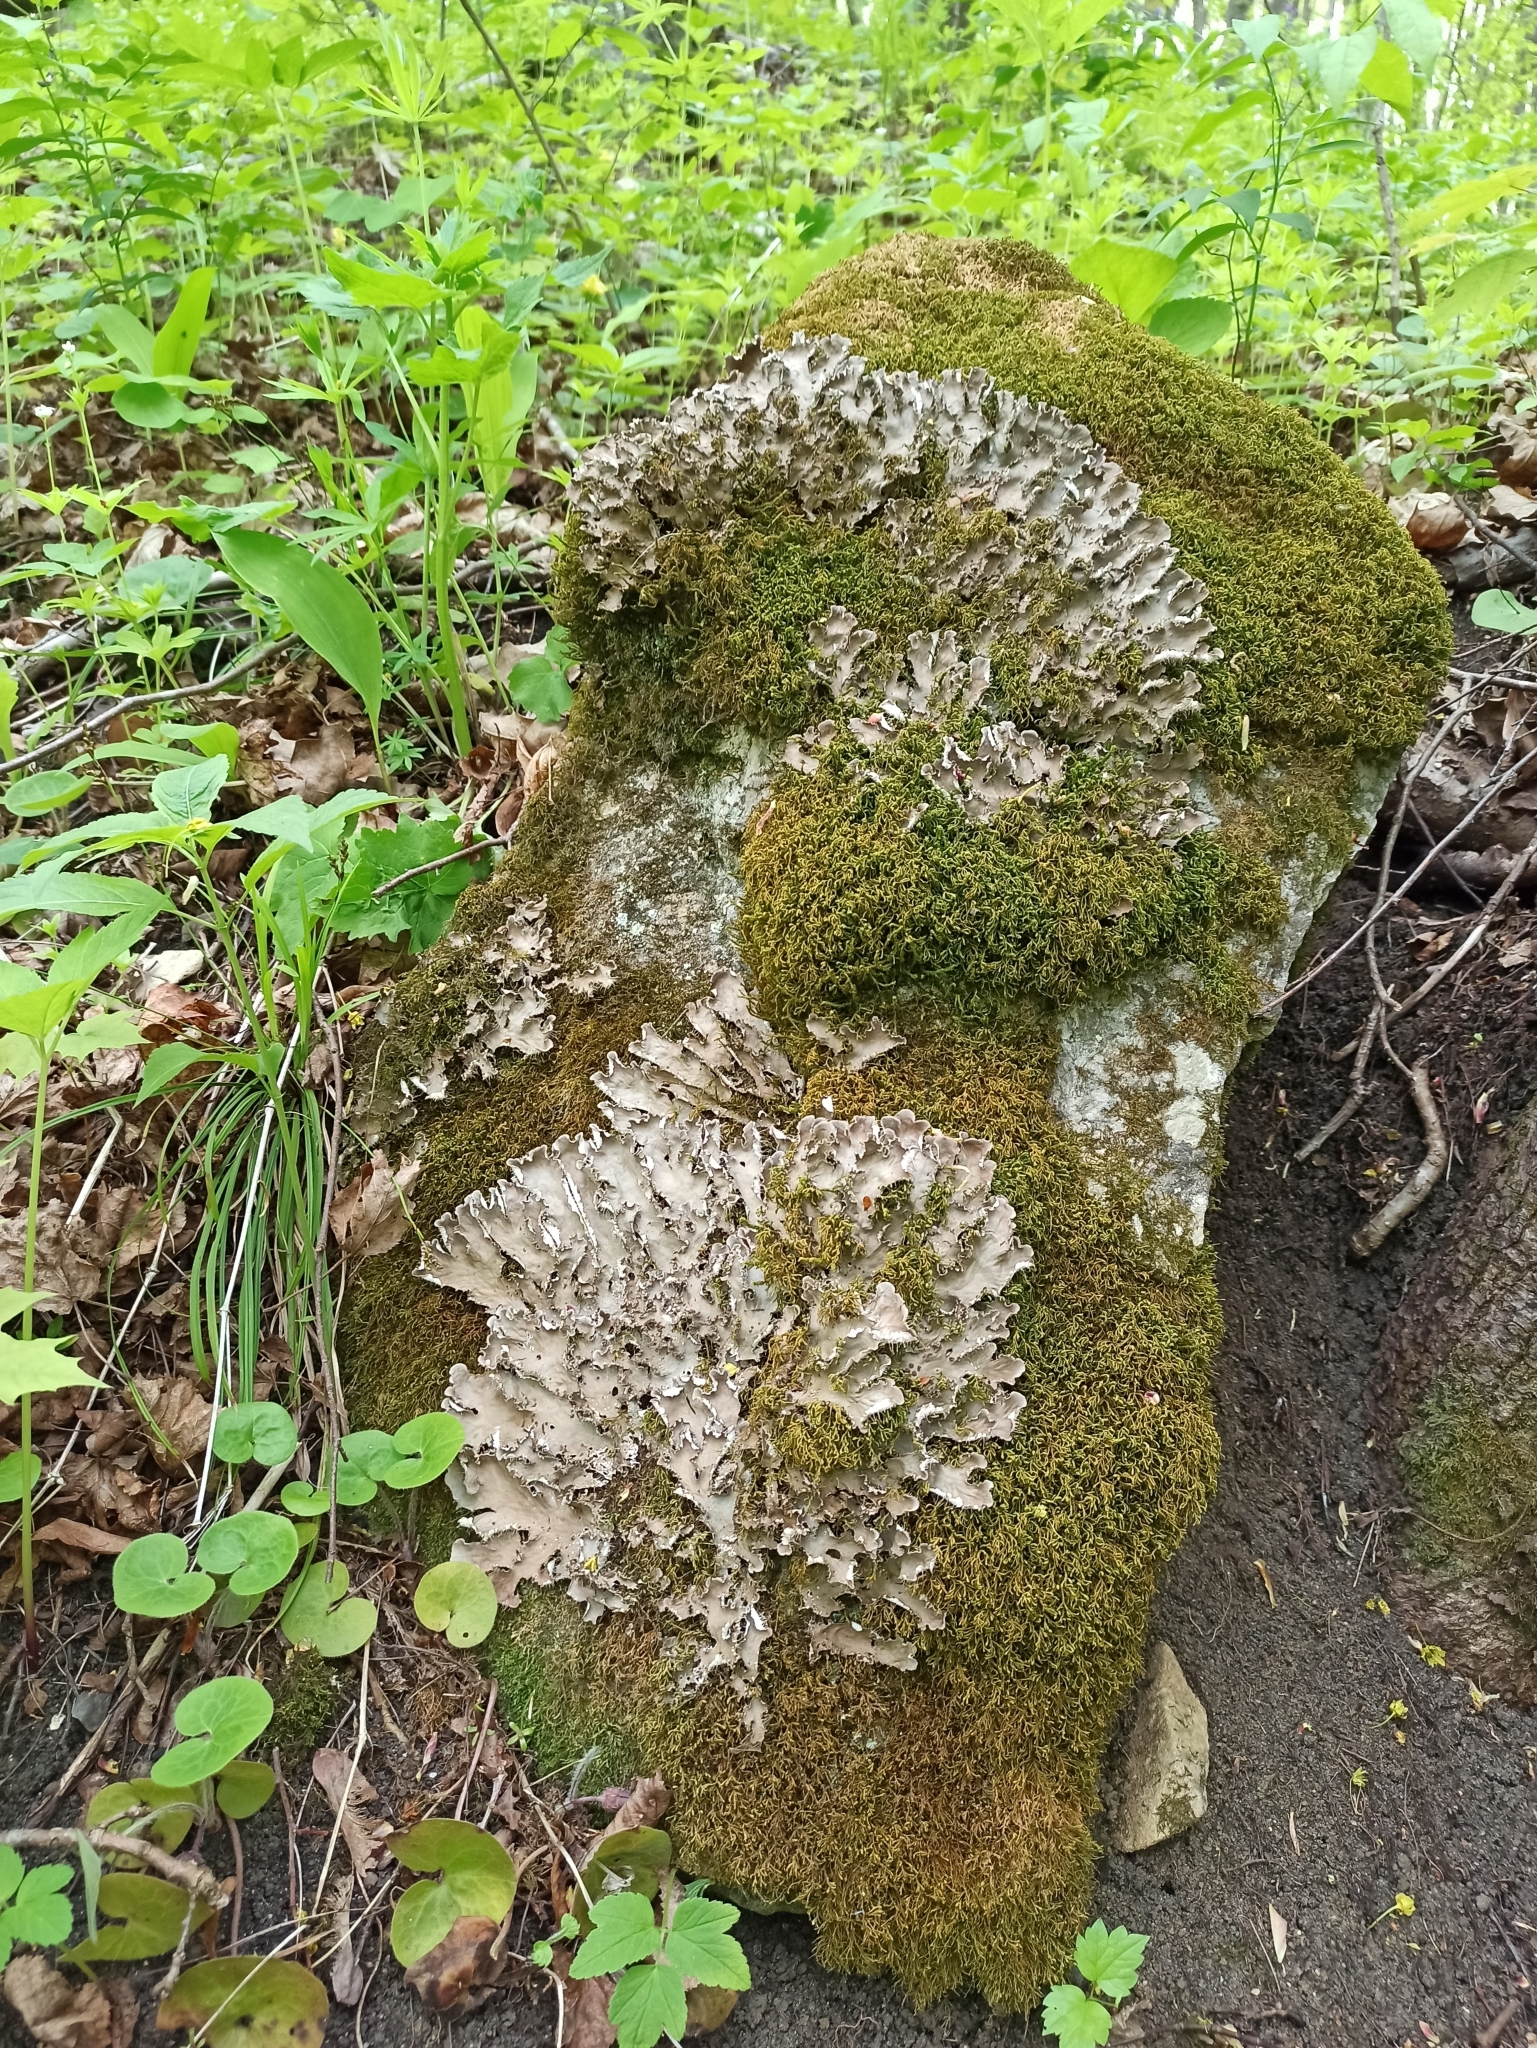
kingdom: Fungi
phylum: Ascomycota
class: Lecanoromycetes
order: Peltigerales
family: Peltigeraceae
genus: Peltigera
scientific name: Peltigera praetextata
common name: Scaly dog-lichen
